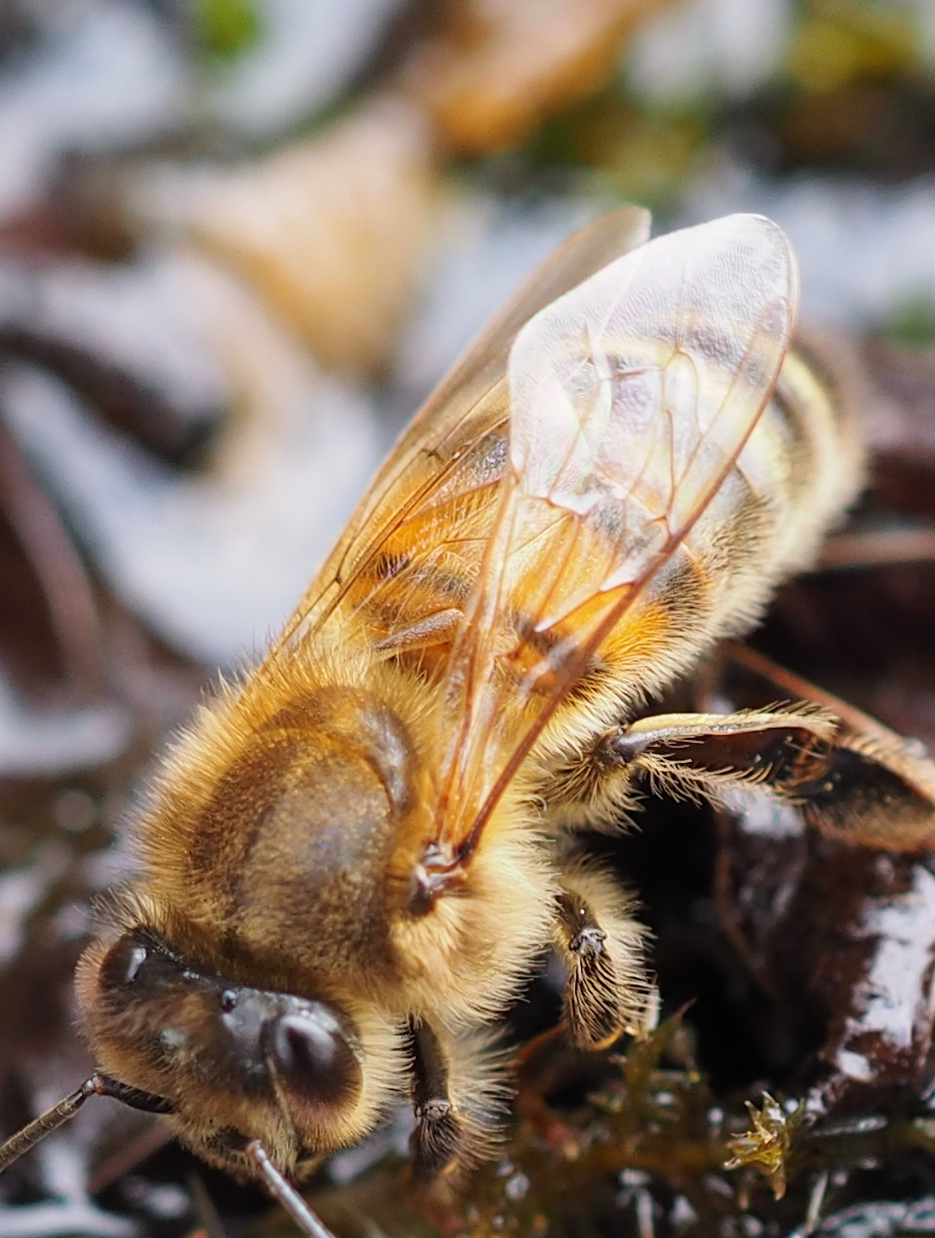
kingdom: Animalia
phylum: Arthropoda
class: Insecta
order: Hymenoptera
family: Apidae
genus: Apis
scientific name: Apis mellifera
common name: Honey bee
